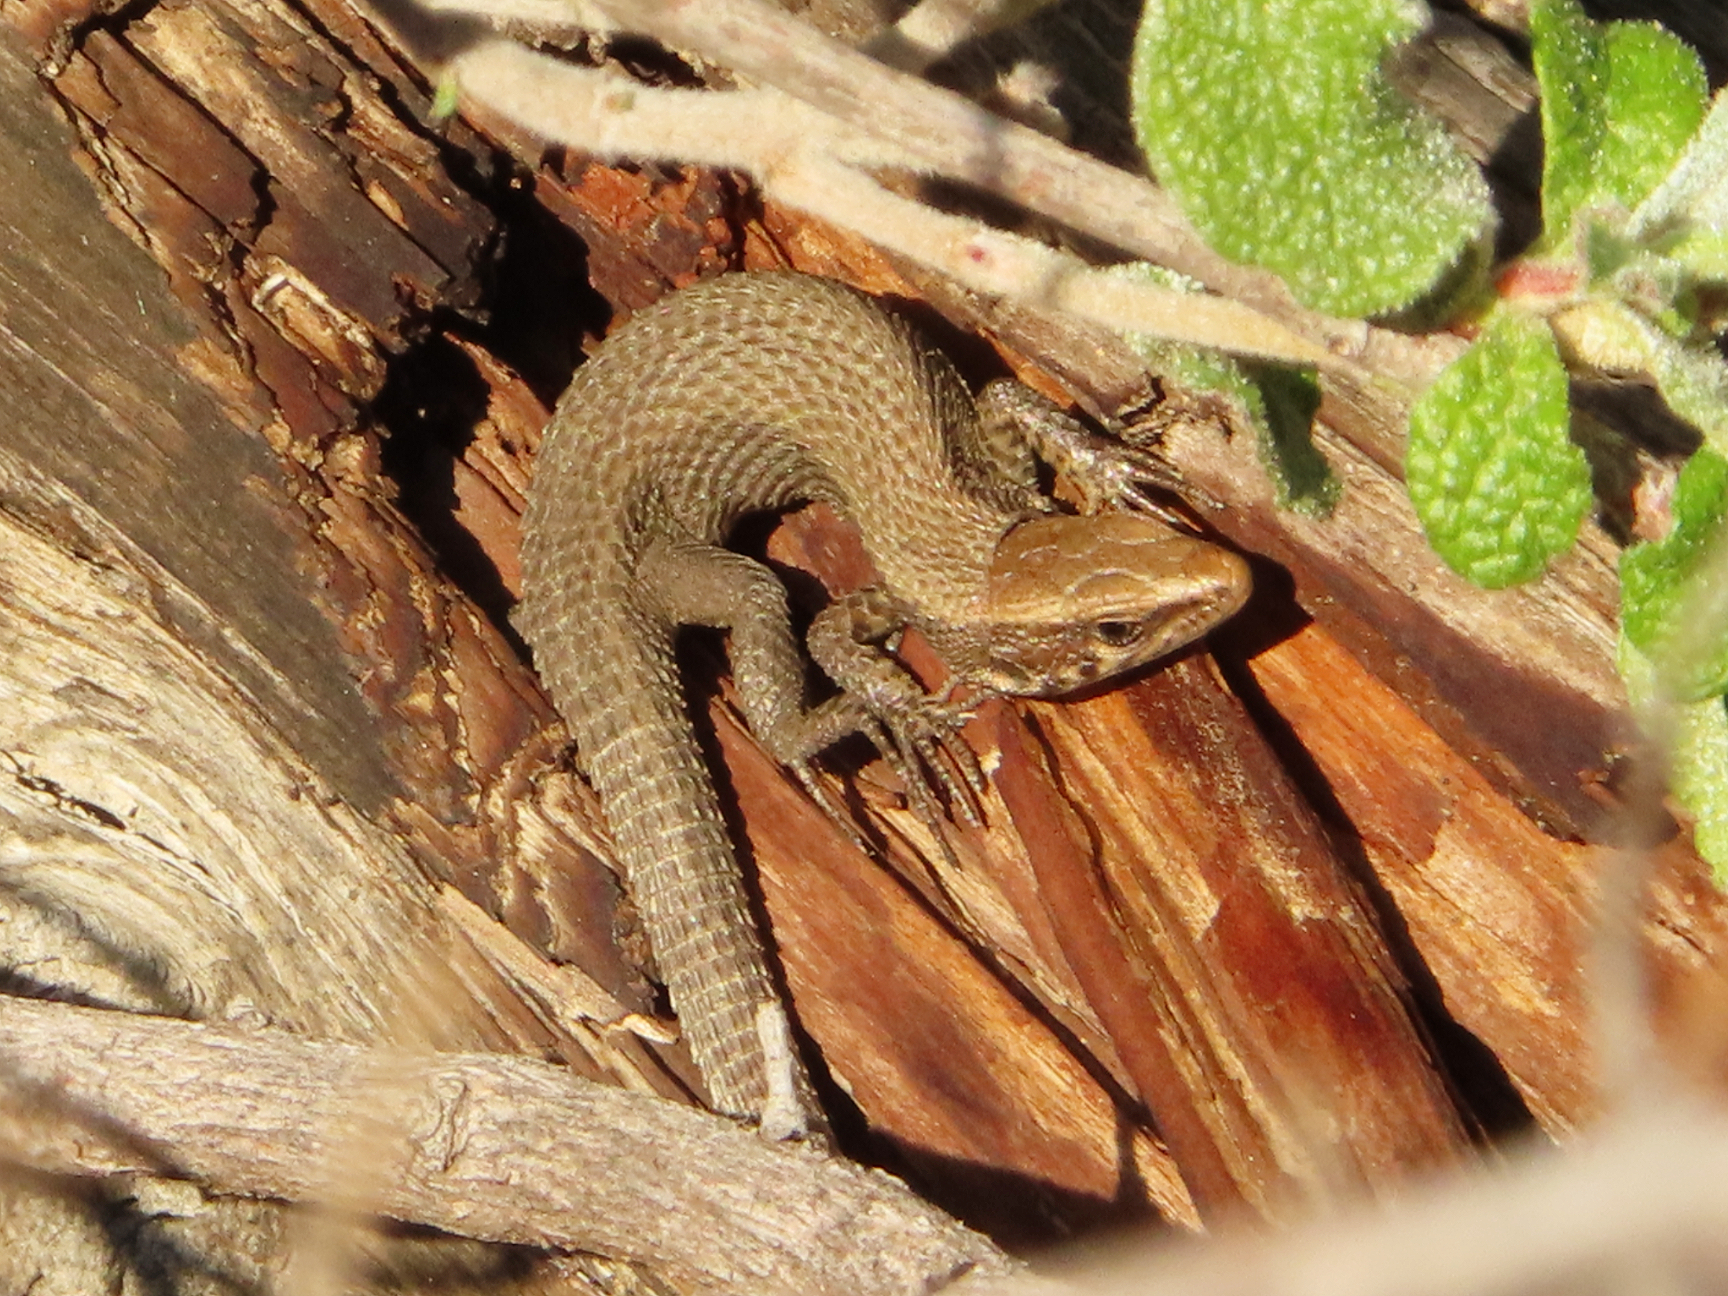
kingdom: Animalia
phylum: Chordata
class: Squamata
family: Lacertidae
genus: Algyroides
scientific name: Algyroides moreoticus
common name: Greek algyroides
